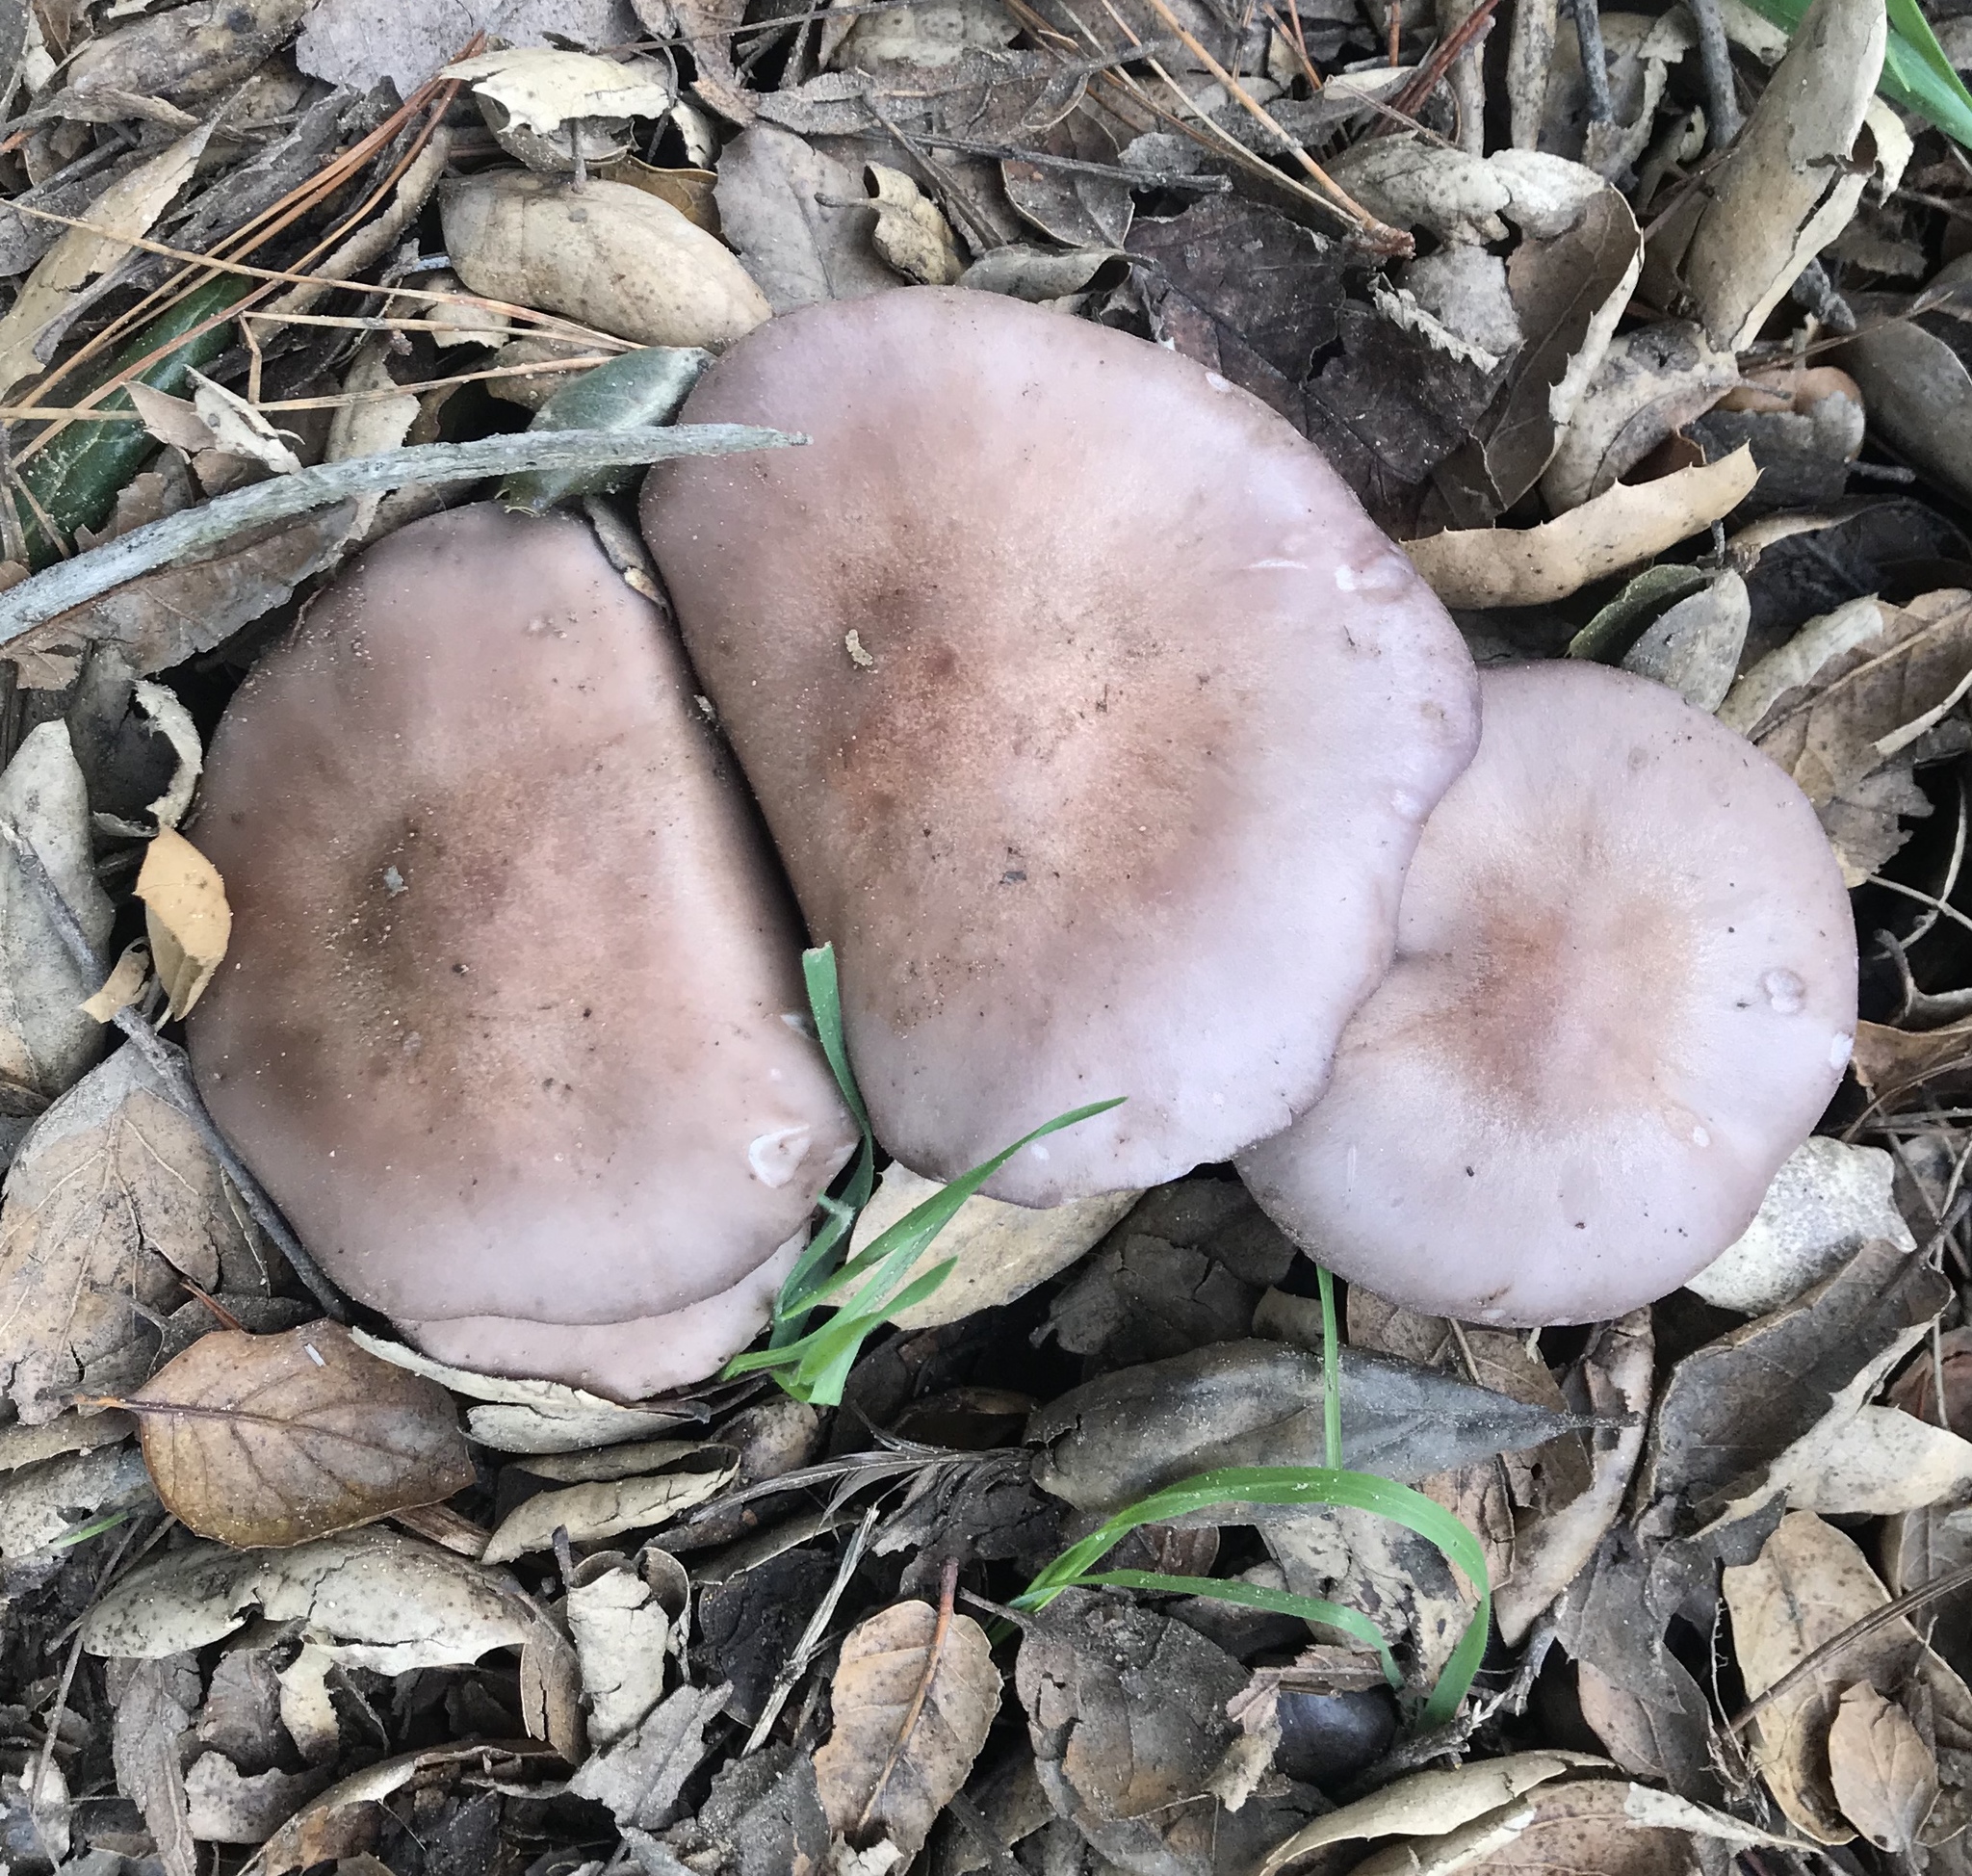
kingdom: Fungi
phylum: Basidiomycota
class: Agaricomycetes
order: Agaricales
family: Tricholomataceae
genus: Collybia
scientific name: Collybia
